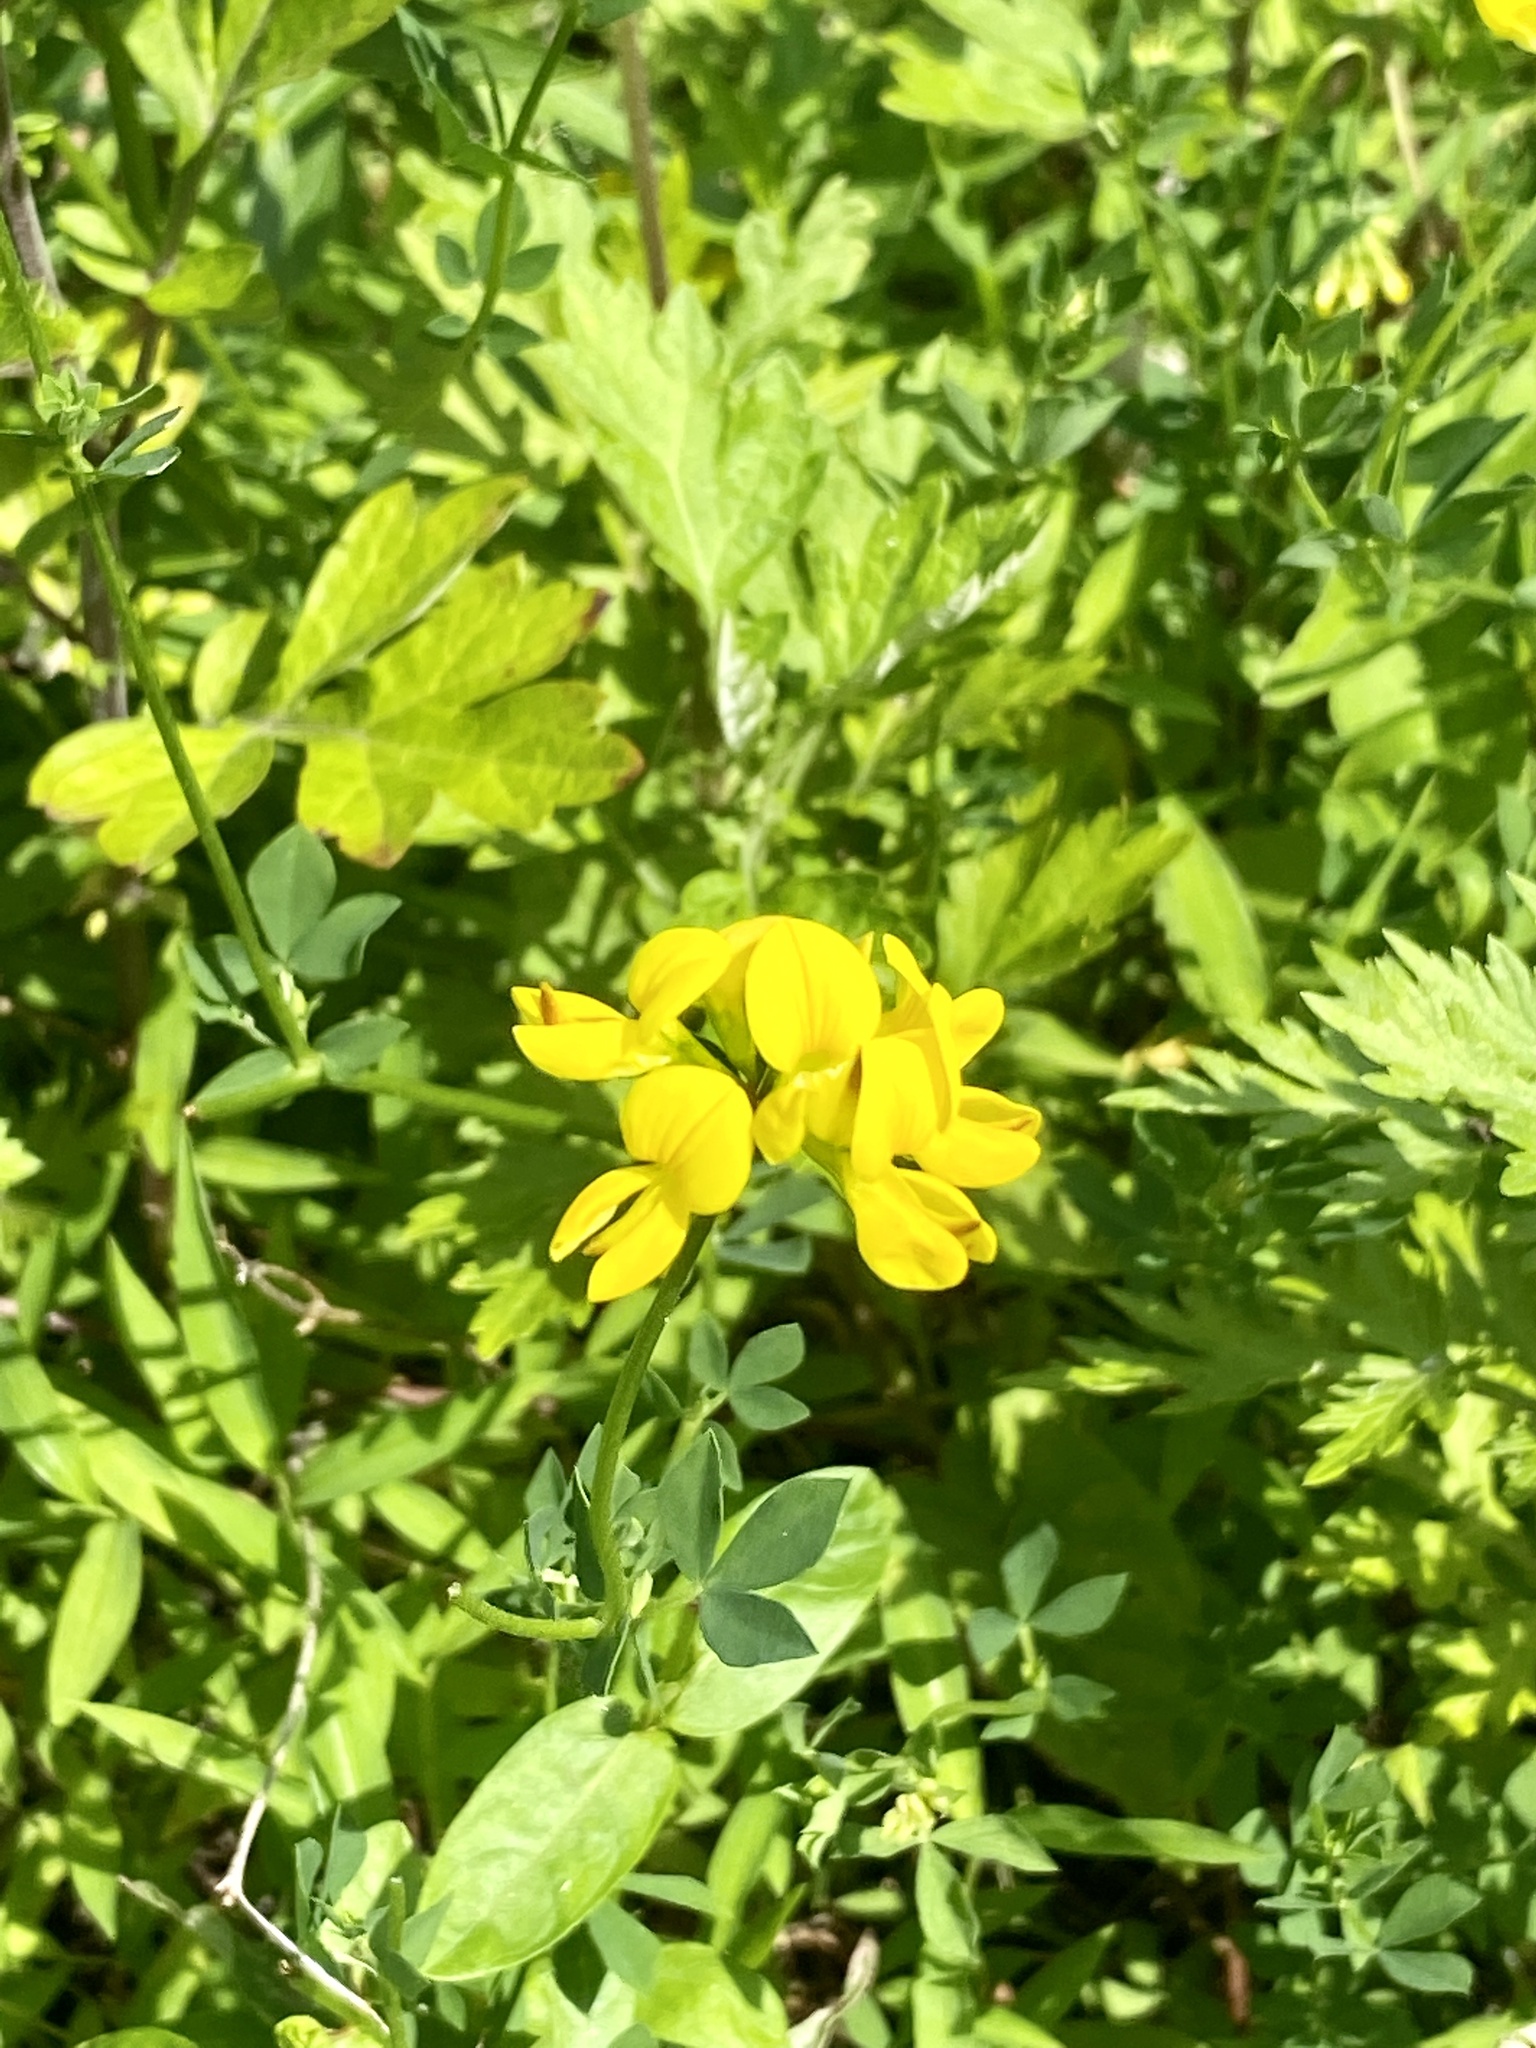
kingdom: Plantae
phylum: Tracheophyta
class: Magnoliopsida
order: Fabales
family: Fabaceae
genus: Lotus
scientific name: Lotus corniculatus
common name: Common bird's-foot-trefoil
